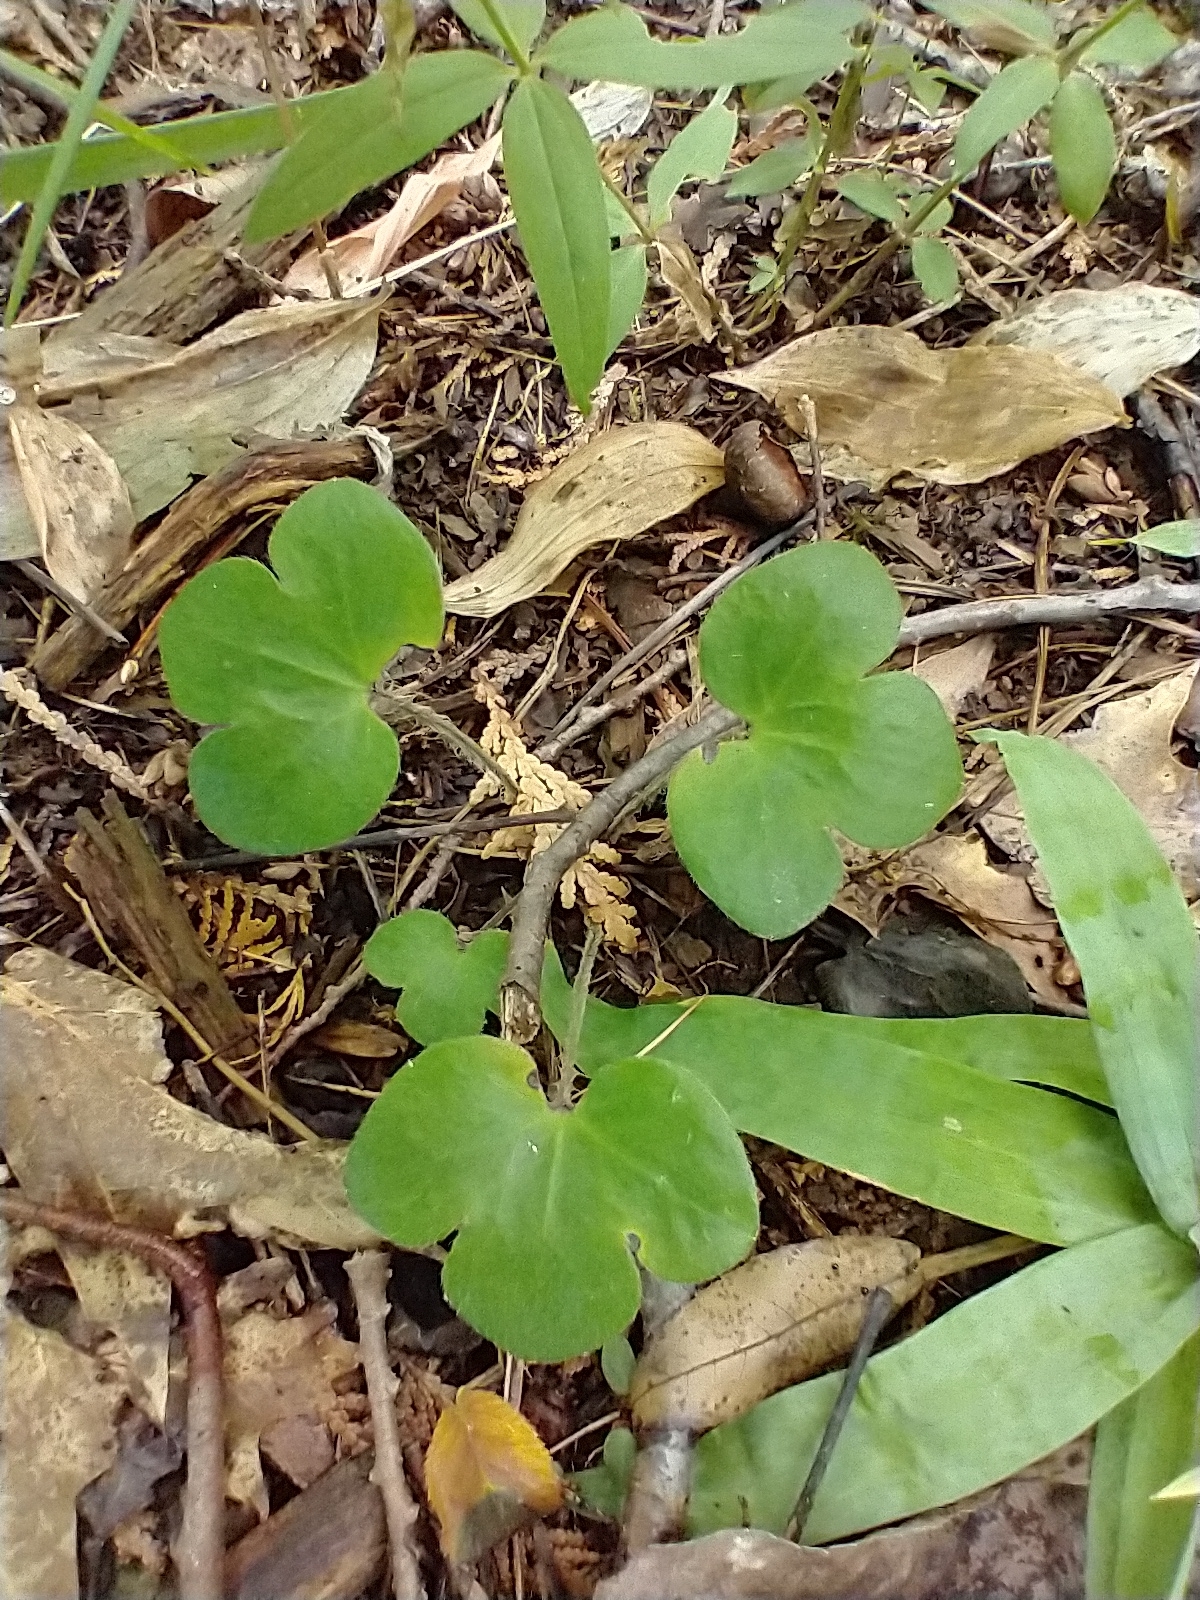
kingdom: Plantae
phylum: Tracheophyta
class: Magnoliopsida
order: Ranunculales
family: Ranunculaceae
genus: Hepatica
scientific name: Hepatica americana
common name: American hepatica
